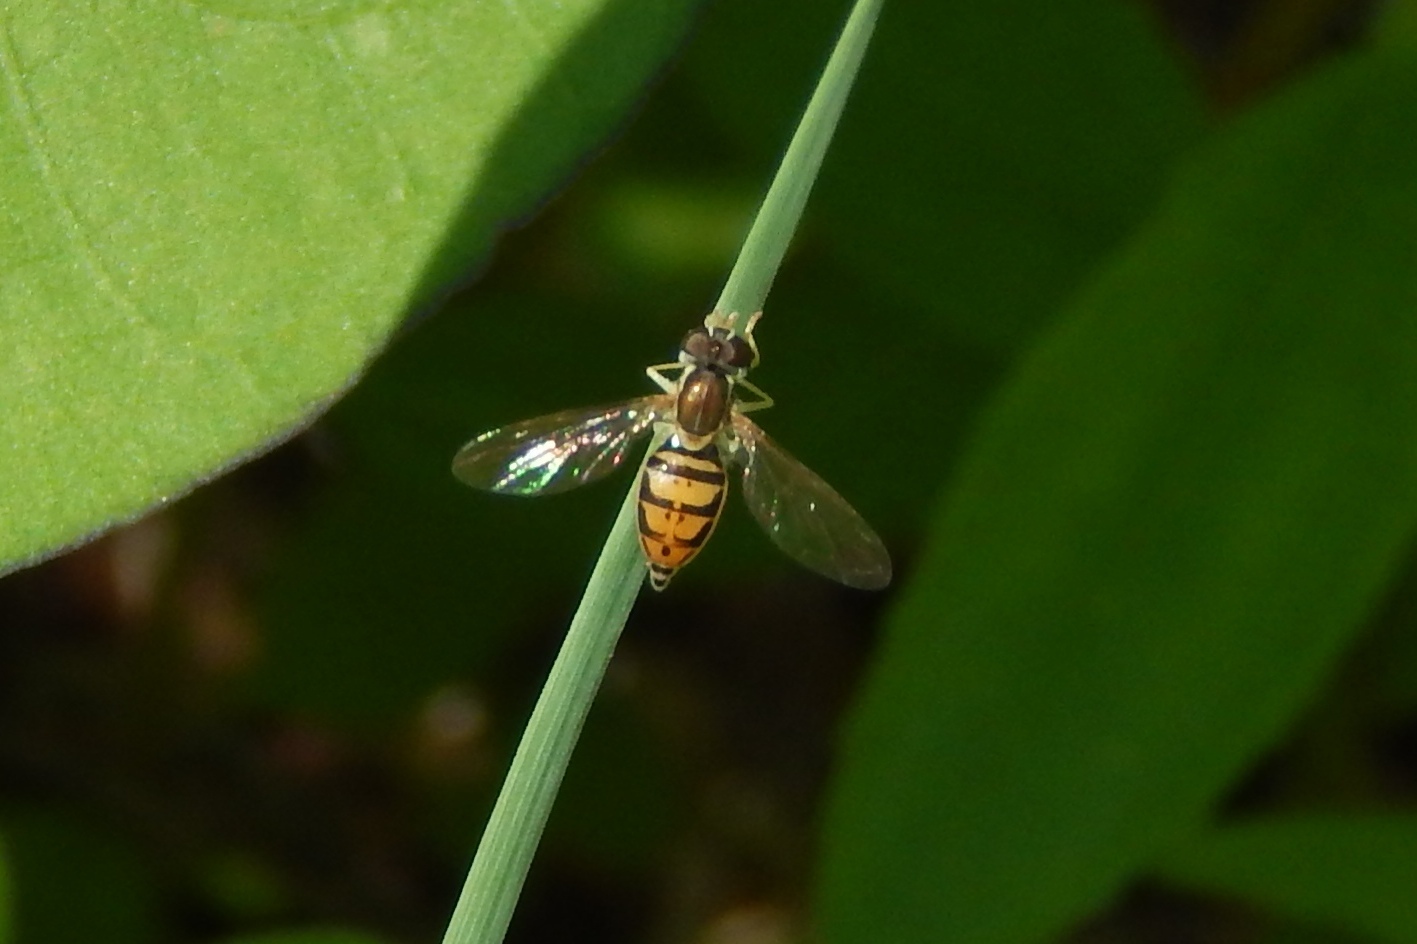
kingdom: Animalia
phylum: Arthropoda
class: Insecta
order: Diptera
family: Syrphidae
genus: Toxomerus
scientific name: Toxomerus marginatus
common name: Syrphid fly
